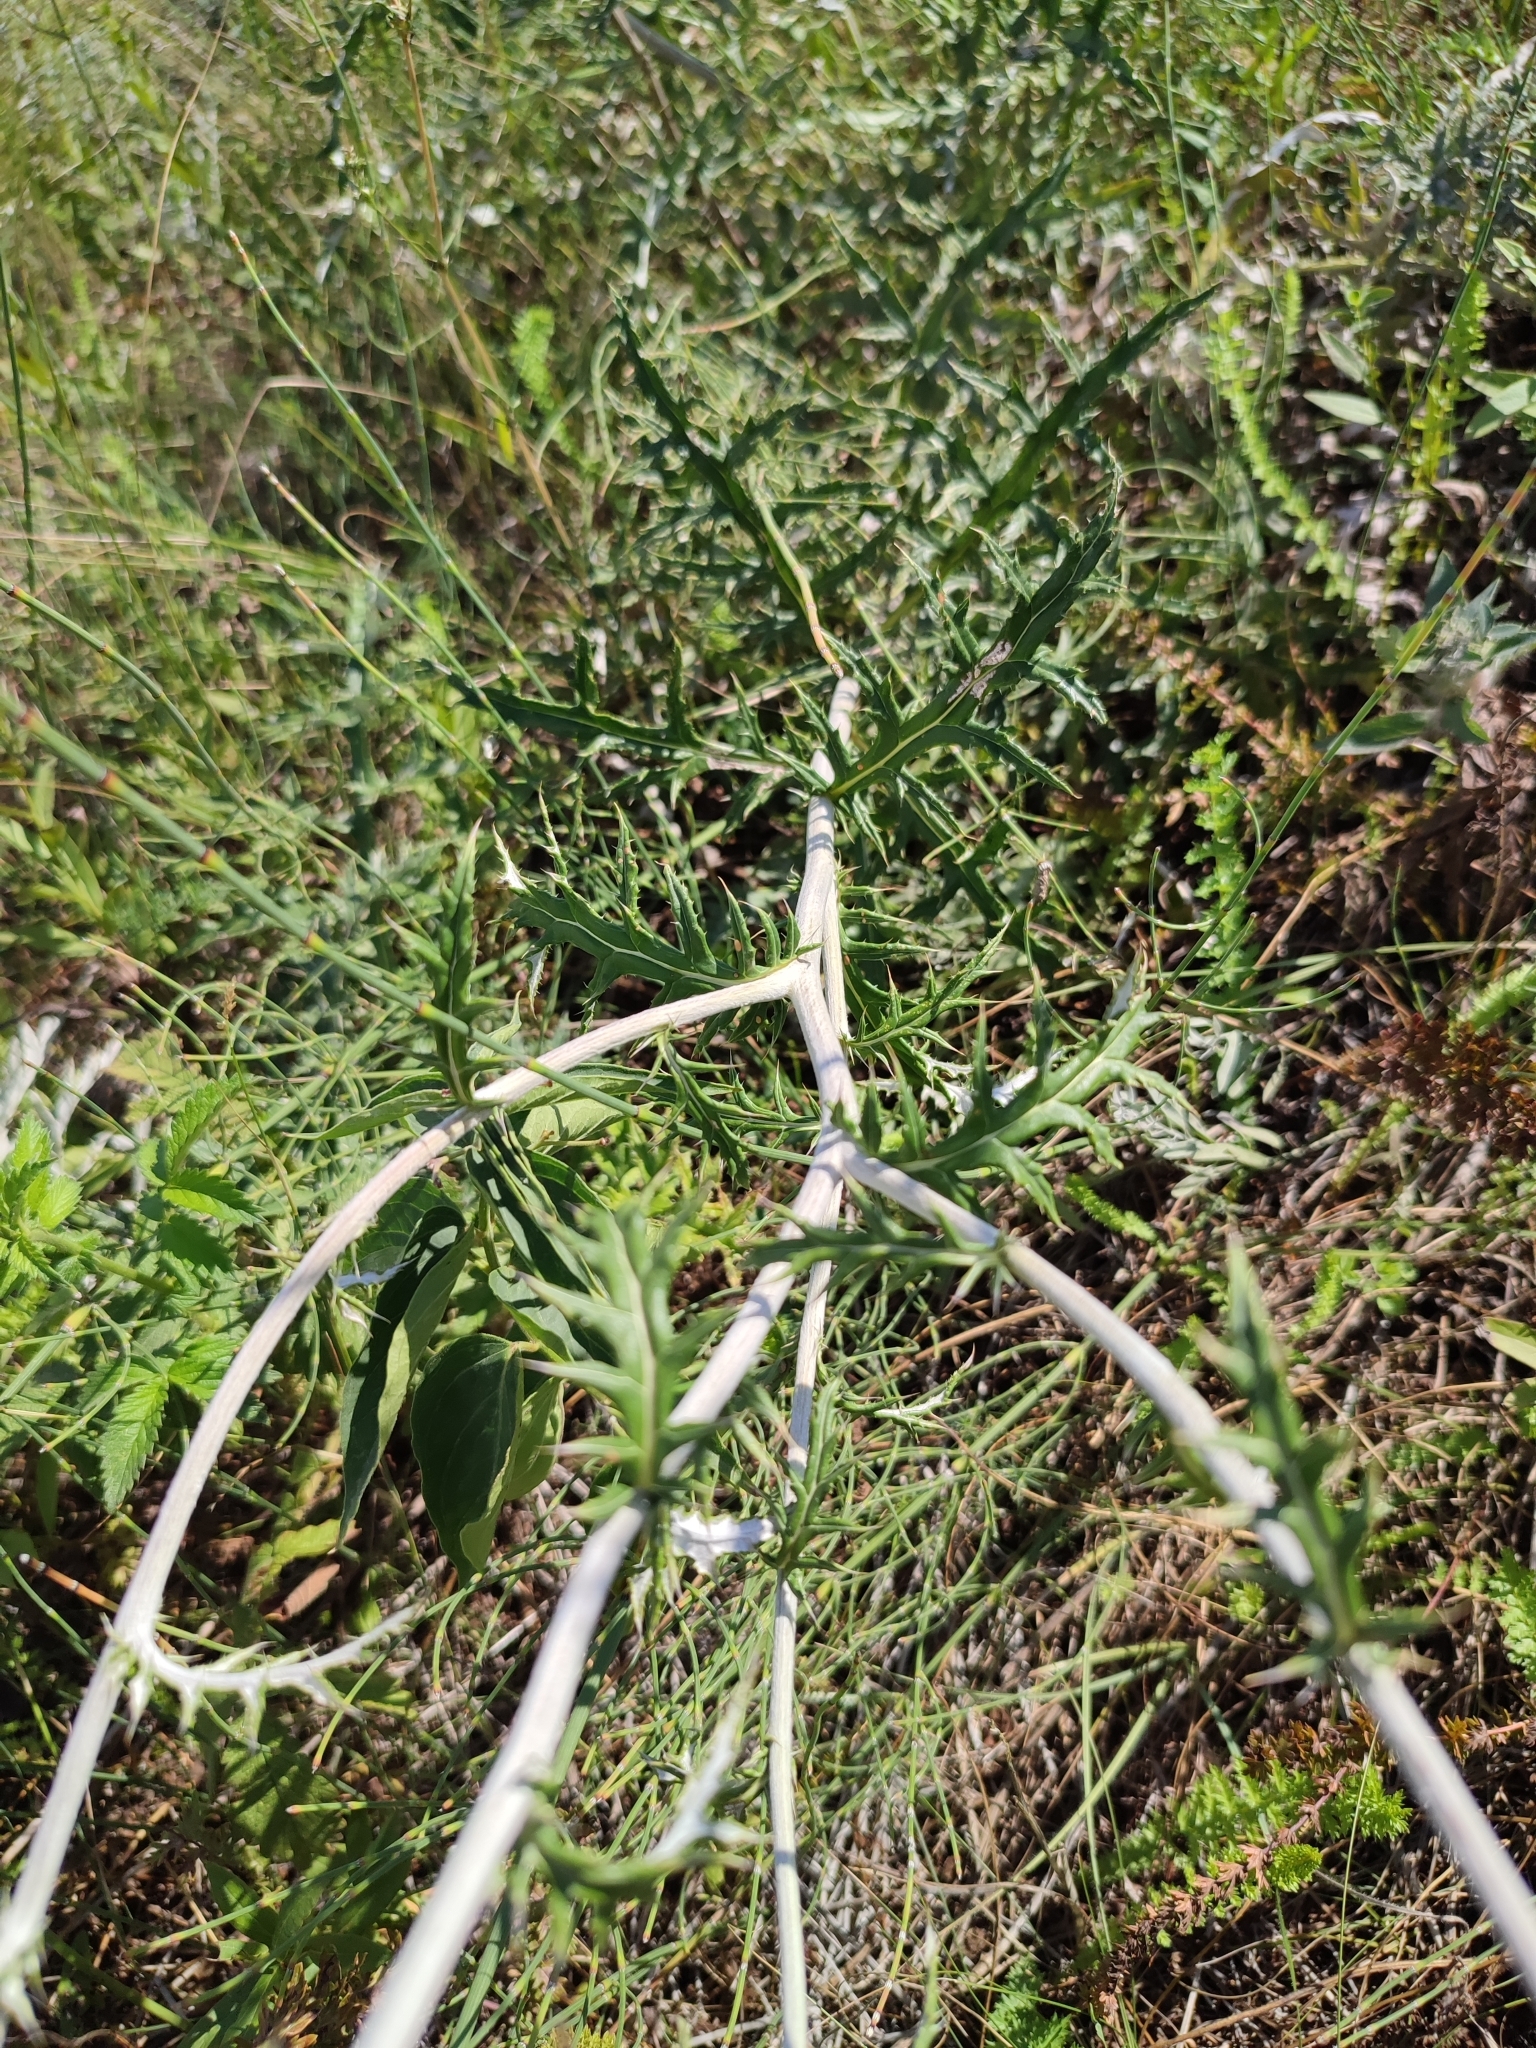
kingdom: Plantae
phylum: Tracheophyta
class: Magnoliopsida
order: Asterales
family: Asteraceae
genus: Echinops
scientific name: Echinops ritro
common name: Globe thistle
